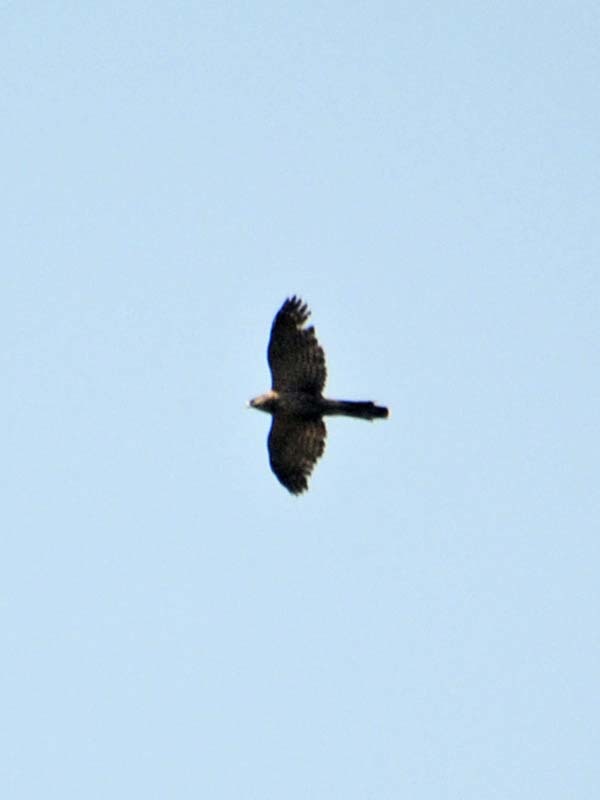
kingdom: Animalia
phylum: Chordata
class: Aves
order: Accipitriformes
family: Accipitridae
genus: Accipiter
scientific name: Accipiter cooperii
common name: Cooper's hawk
